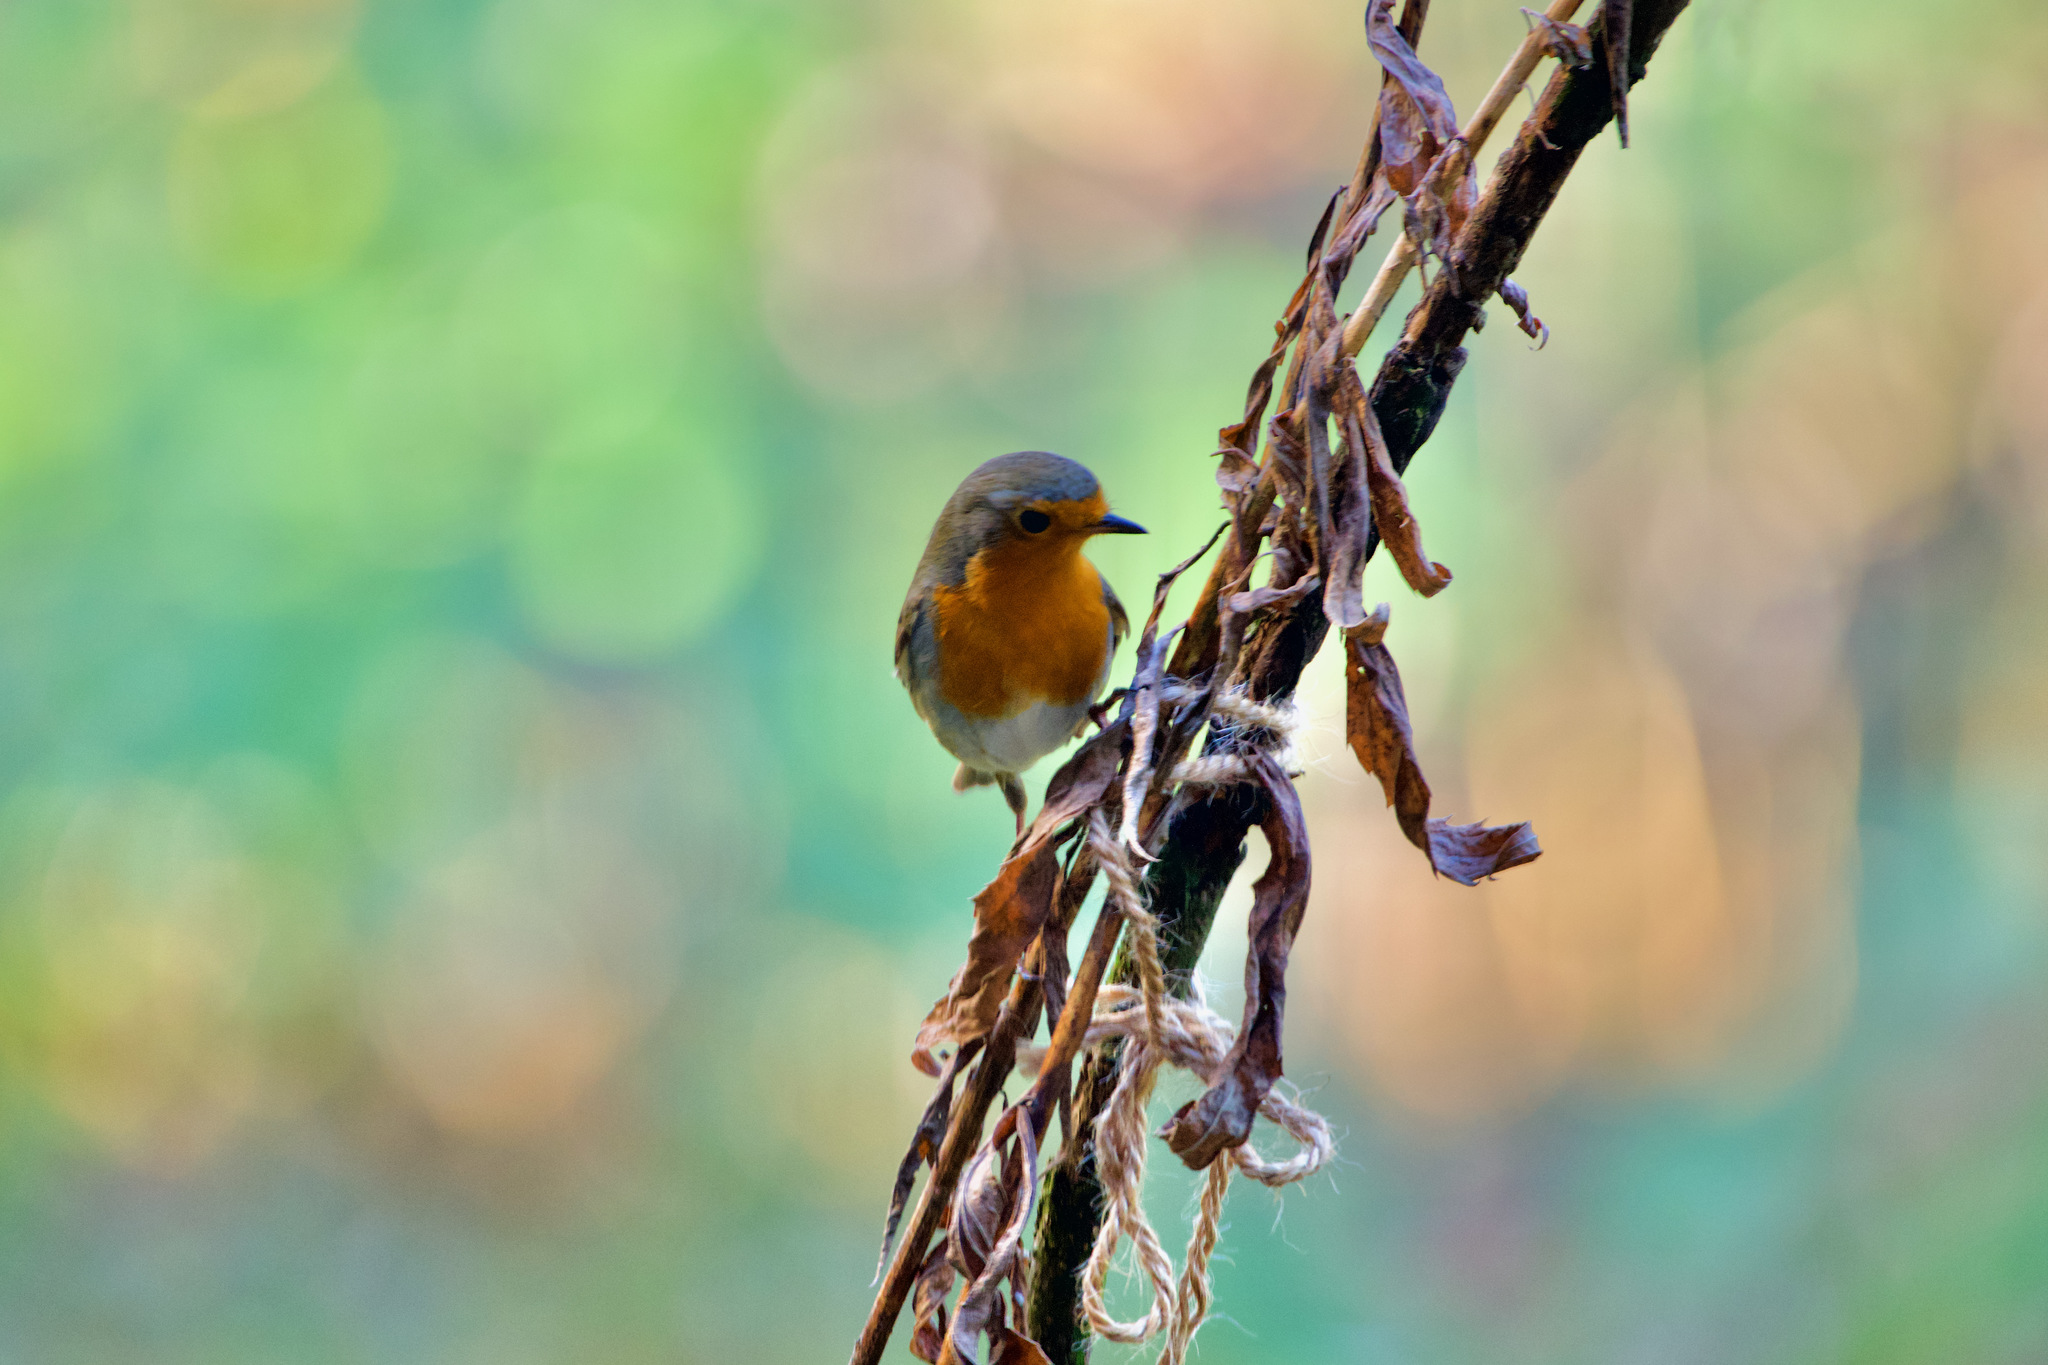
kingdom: Animalia
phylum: Chordata
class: Aves
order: Passeriformes
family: Muscicapidae
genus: Erithacus
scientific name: Erithacus rubecula
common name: European robin
